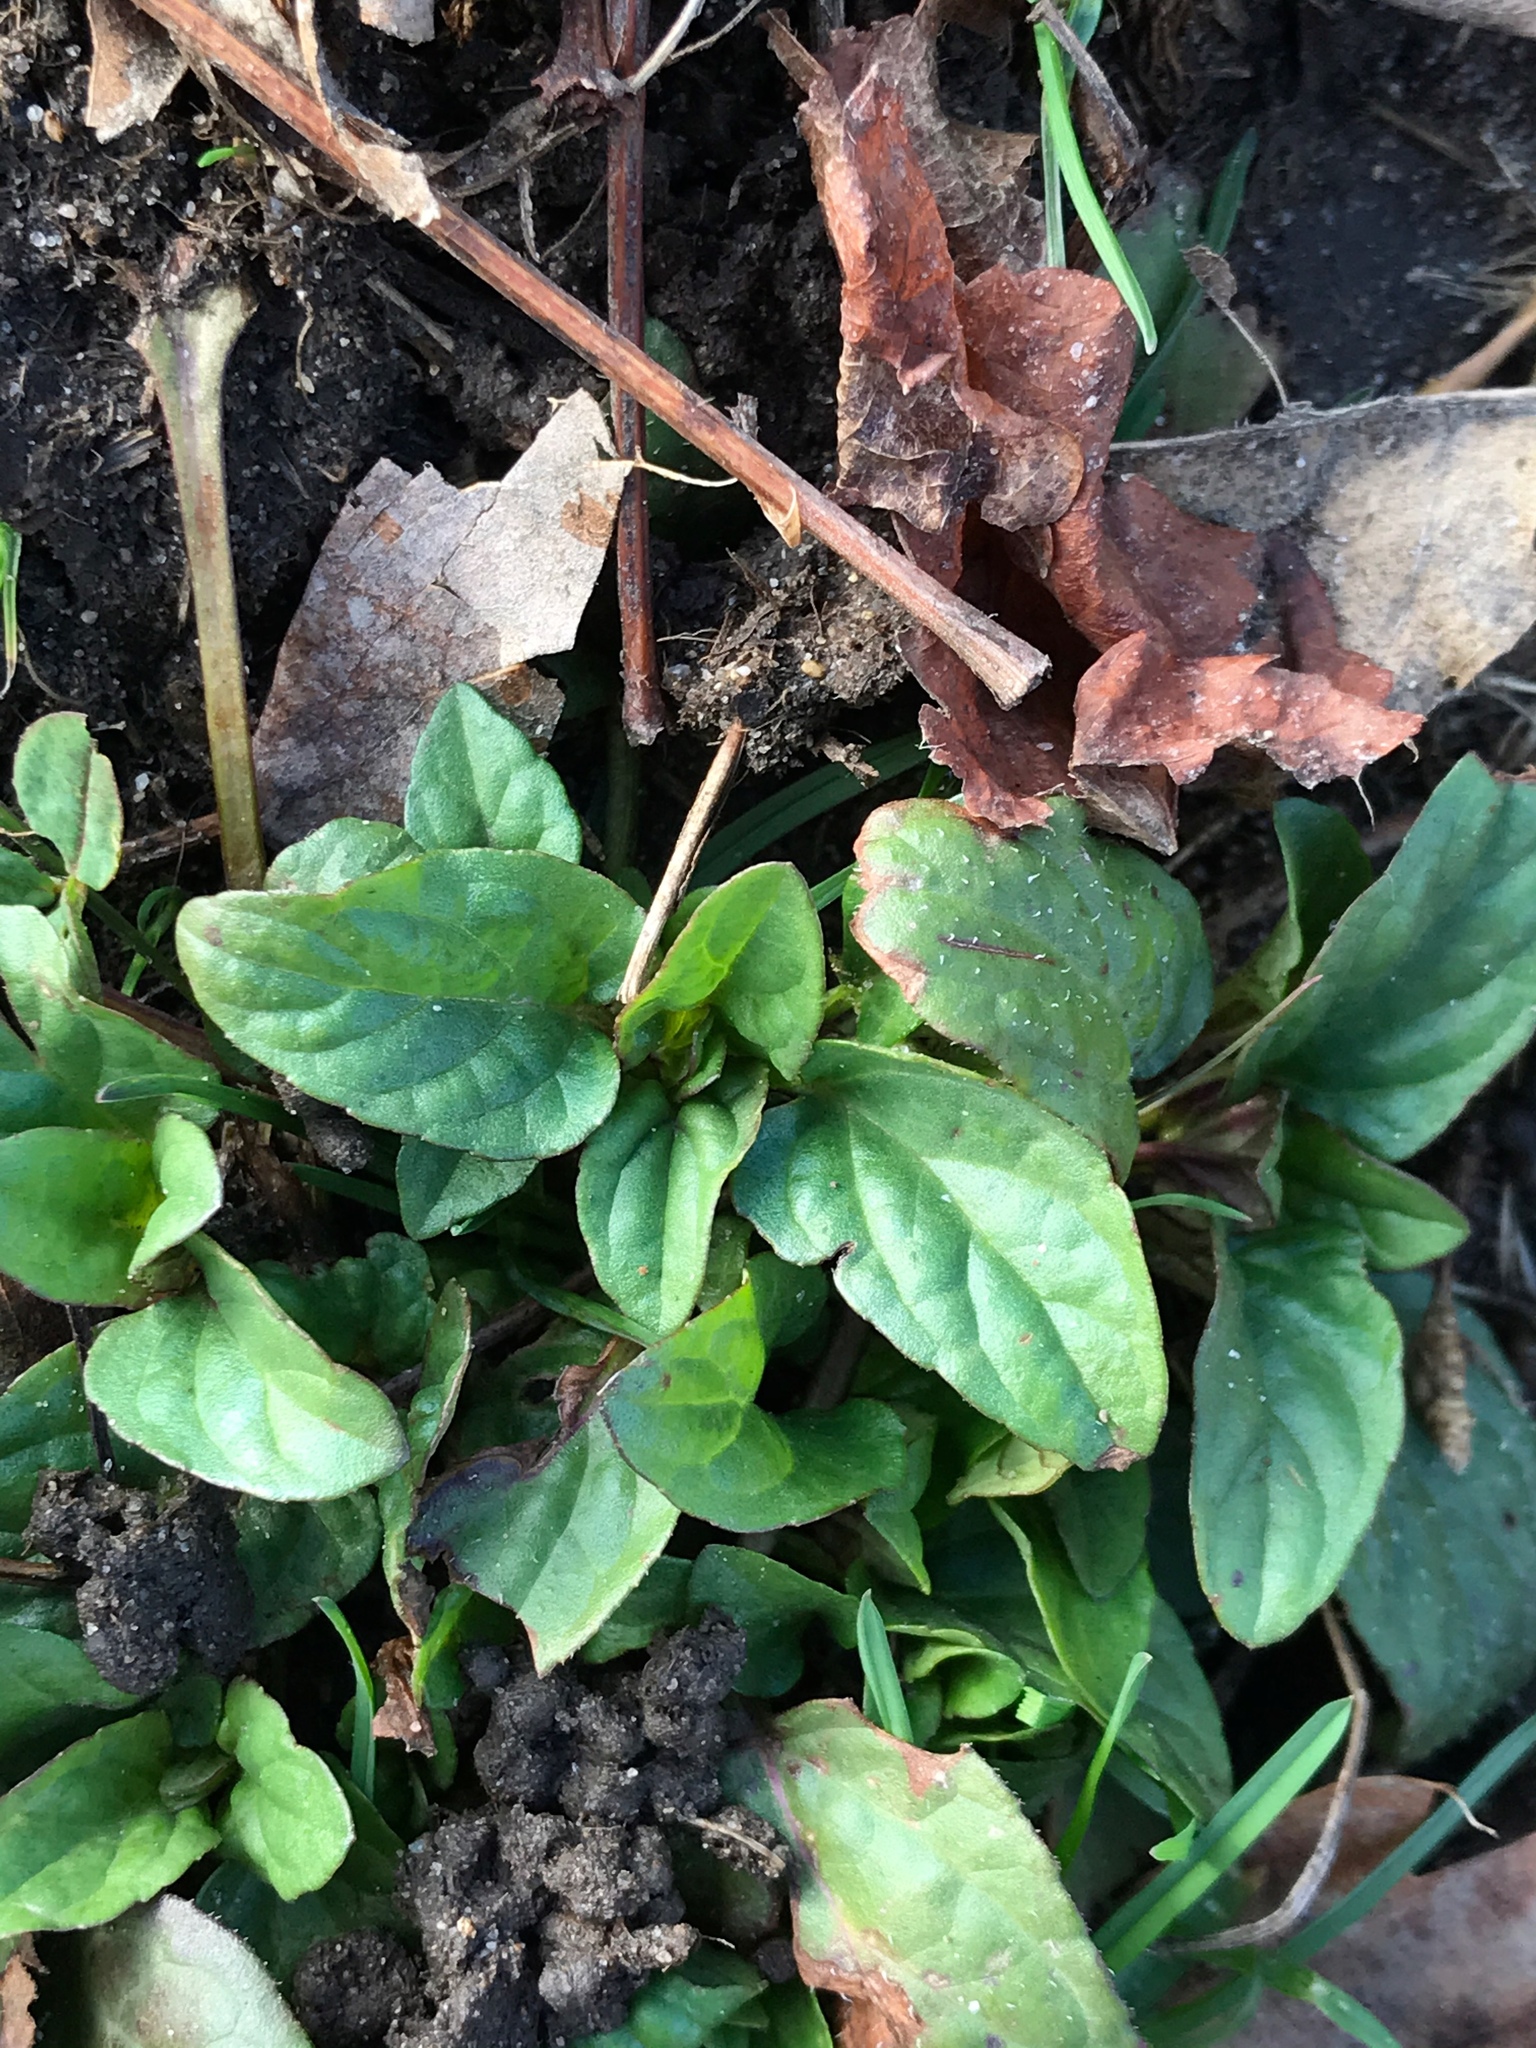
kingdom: Plantae
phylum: Tracheophyta
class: Magnoliopsida
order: Lamiales
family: Lamiaceae
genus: Prunella
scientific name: Prunella vulgaris
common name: Heal-all
